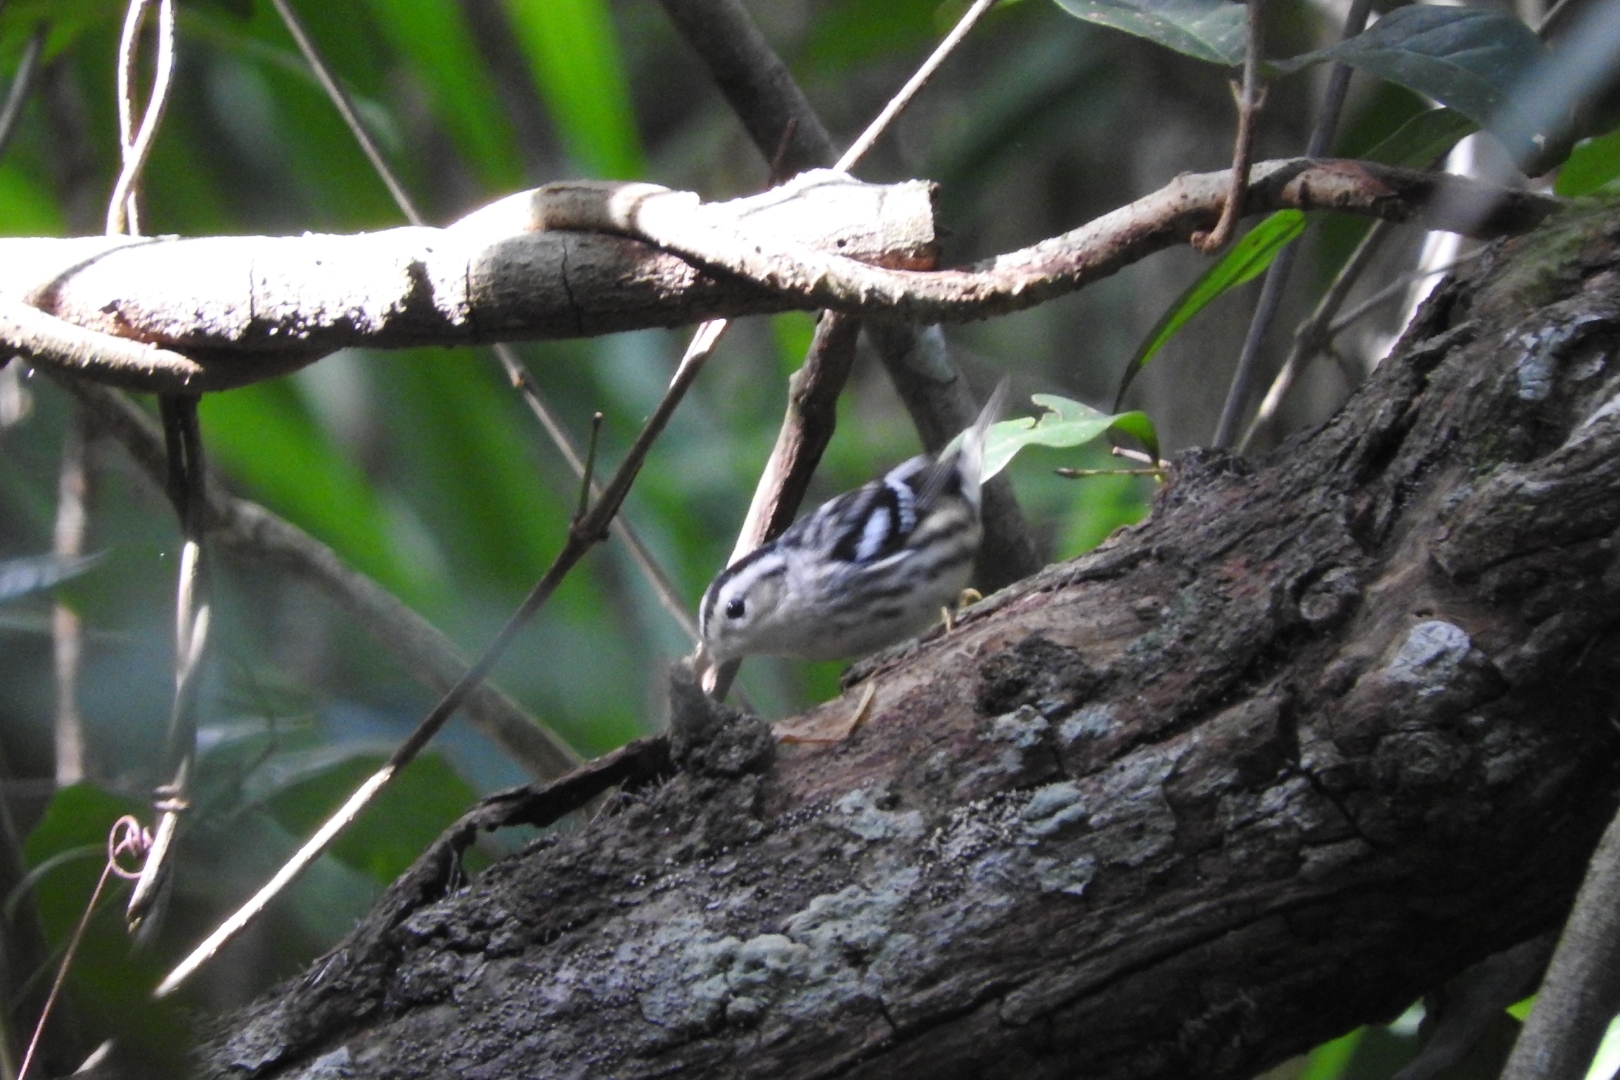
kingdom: Animalia
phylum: Chordata
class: Aves
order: Passeriformes
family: Parulidae
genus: Mniotilta
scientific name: Mniotilta varia
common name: Black-and-white warbler
